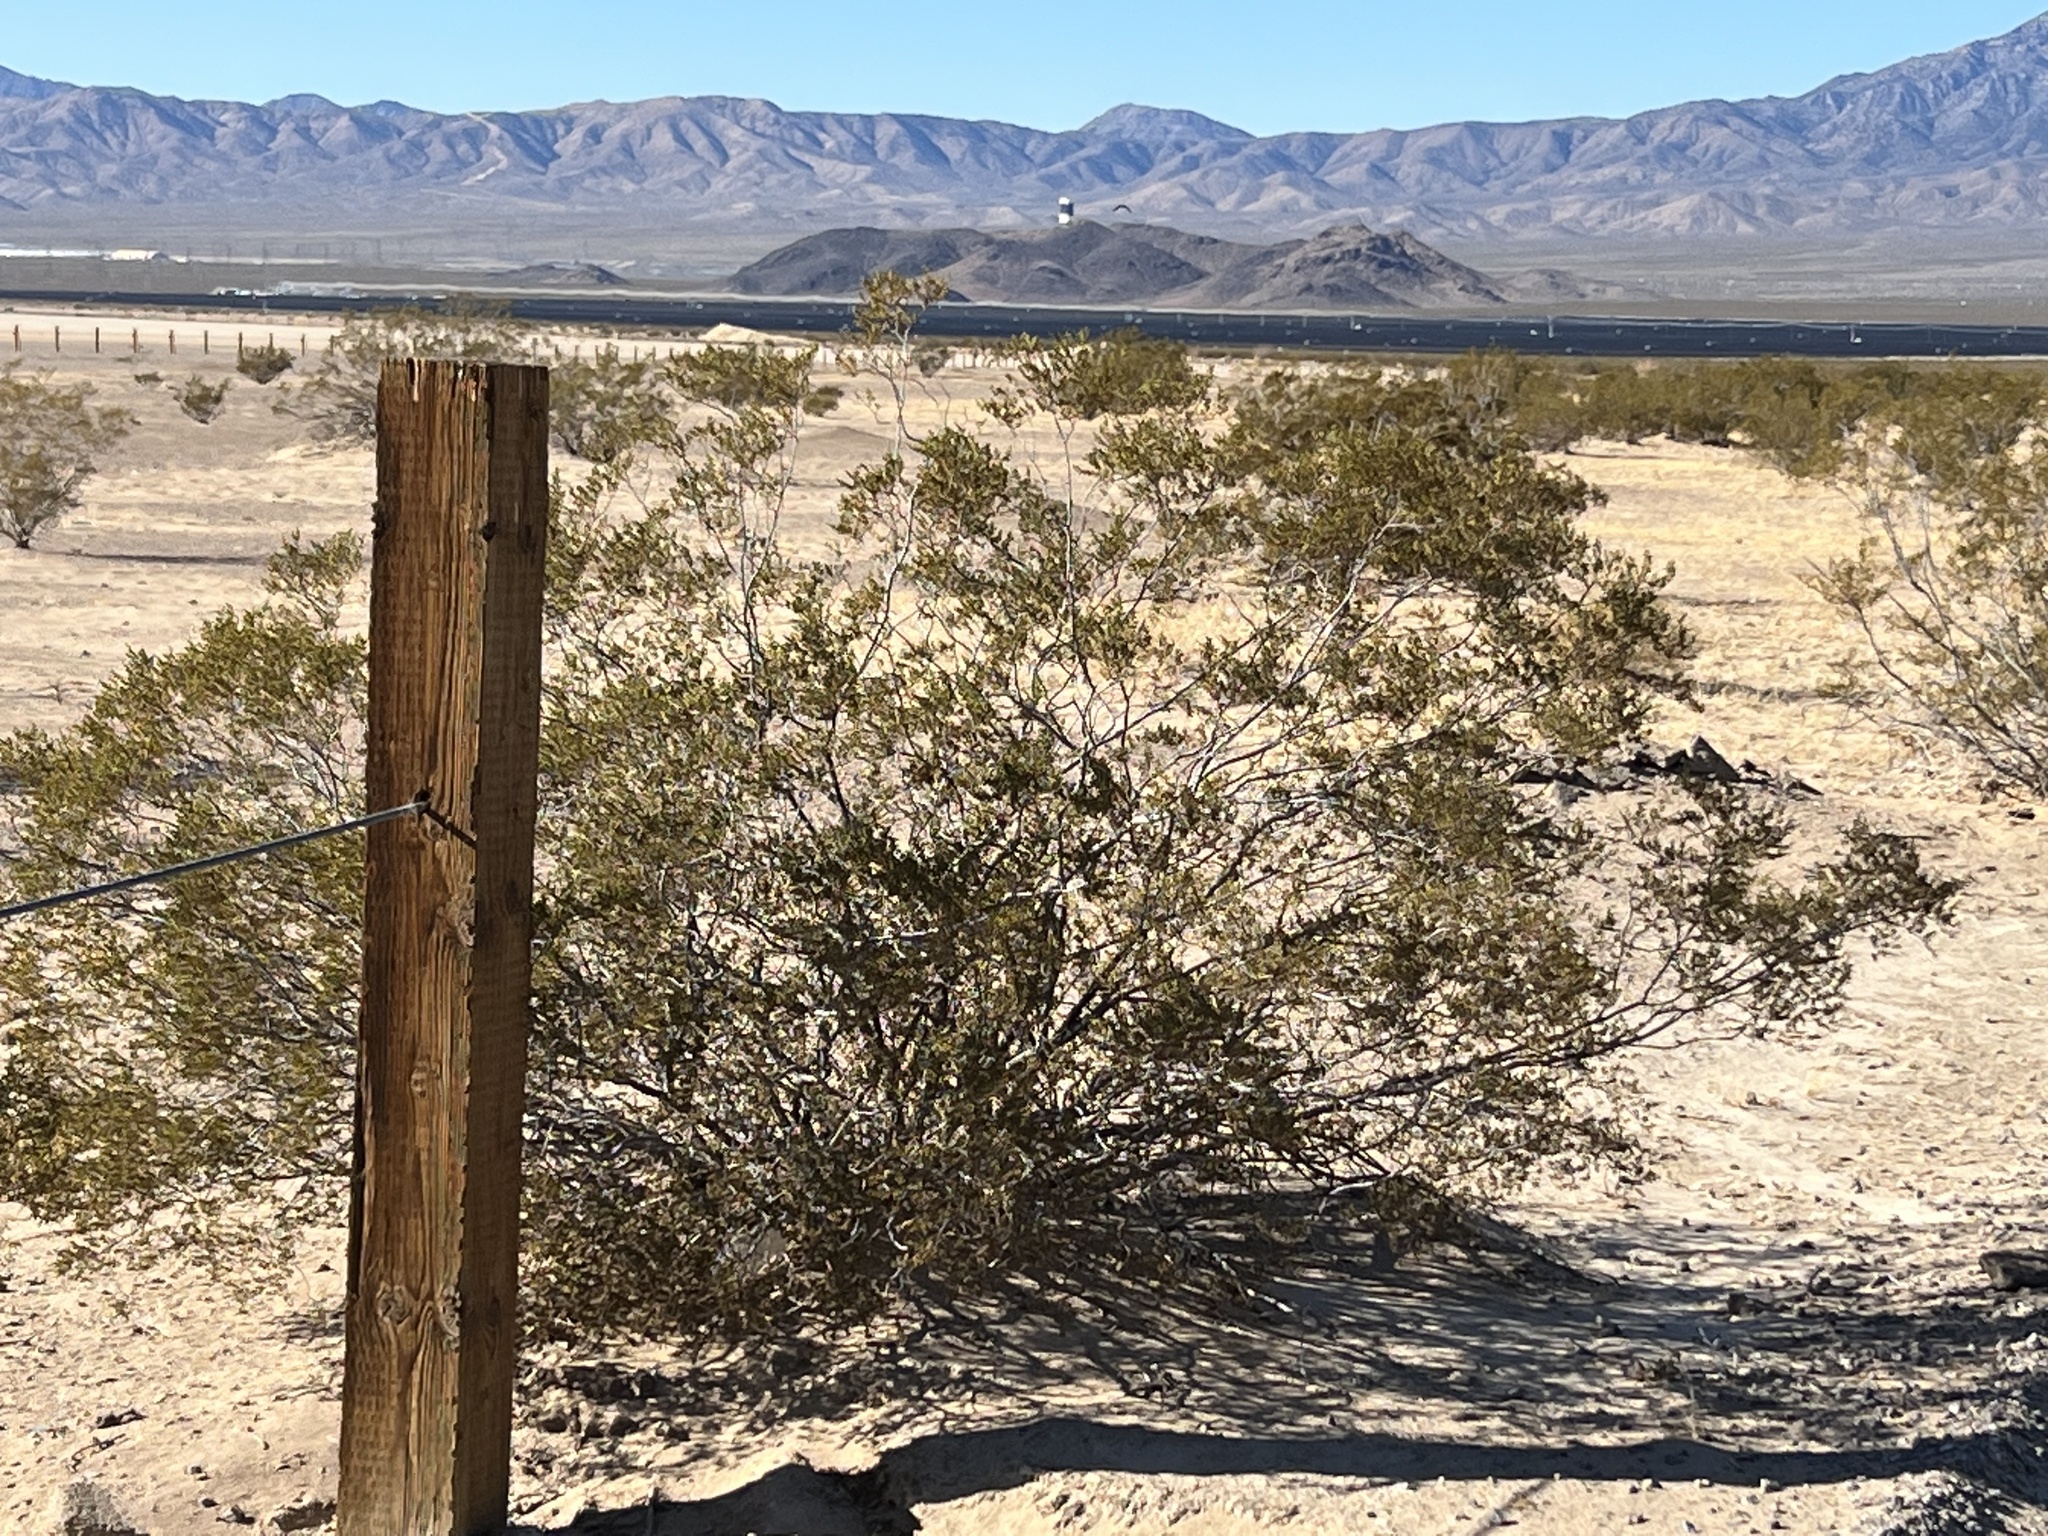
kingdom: Plantae
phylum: Tracheophyta
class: Magnoliopsida
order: Zygophyllales
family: Zygophyllaceae
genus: Larrea
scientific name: Larrea tridentata
